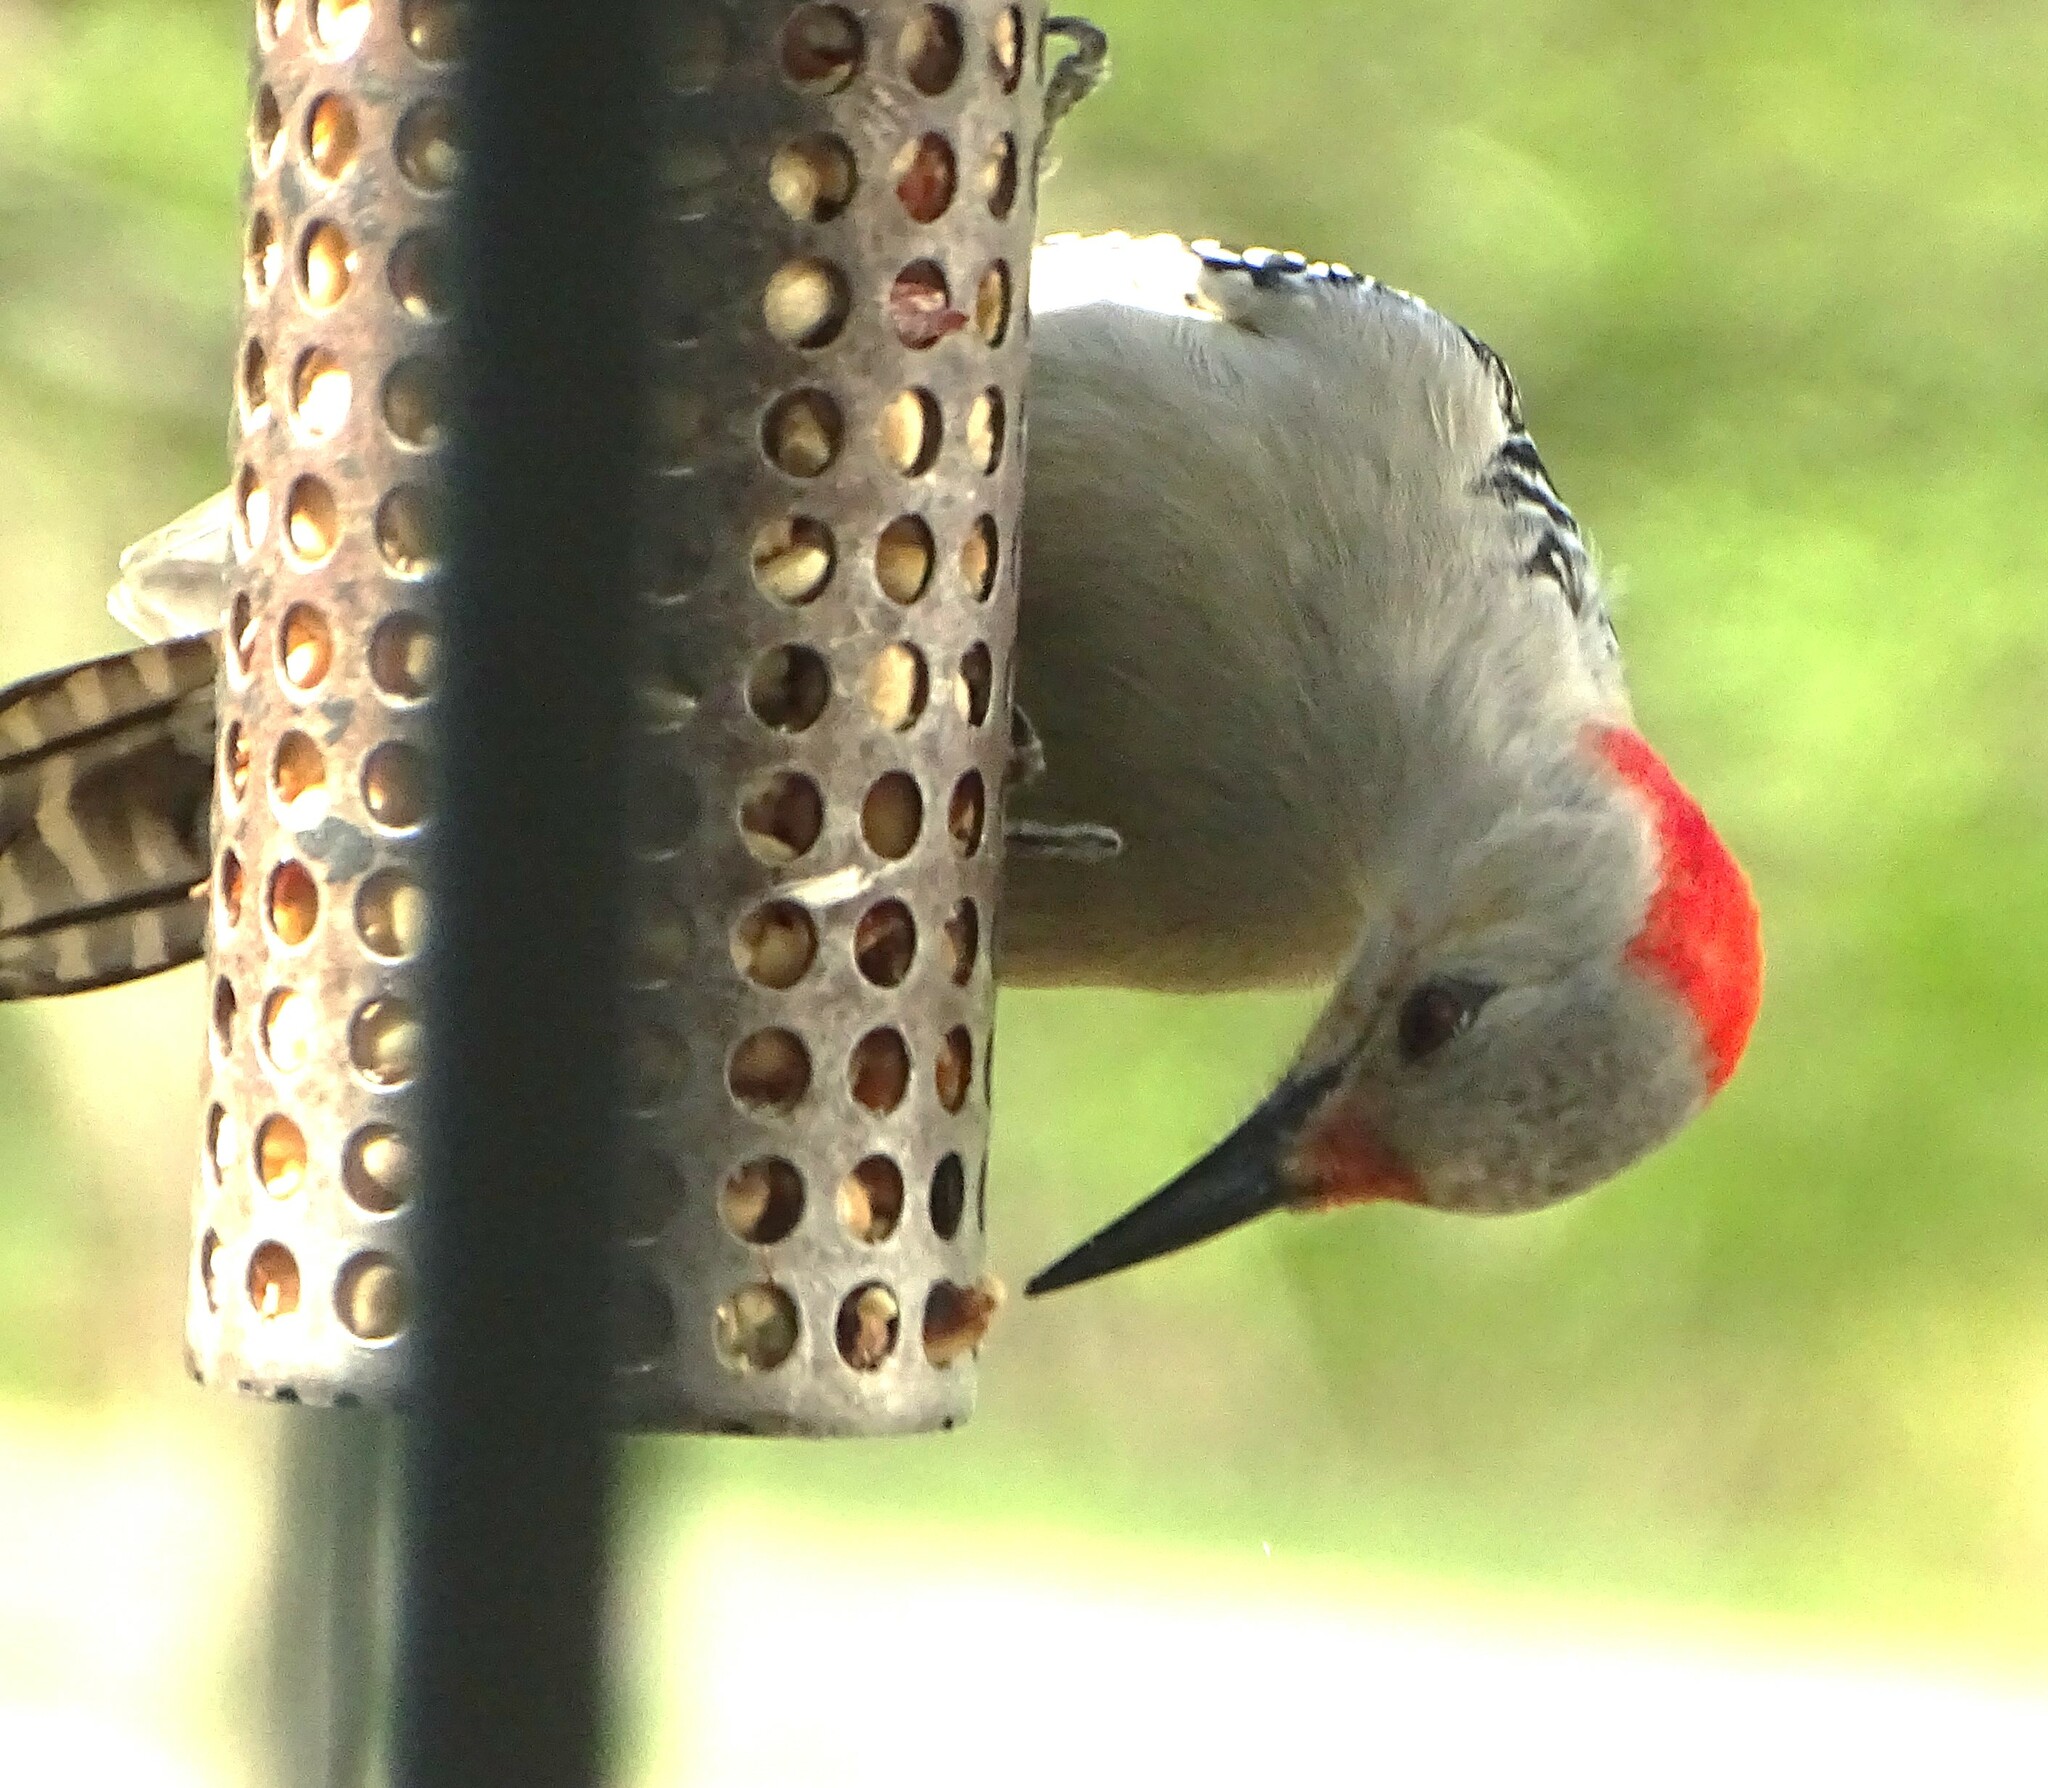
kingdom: Animalia
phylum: Chordata
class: Aves
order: Piciformes
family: Picidae
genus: Melanerpes
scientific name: Melanerpes carolinus
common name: Red-bellied woodpecker
